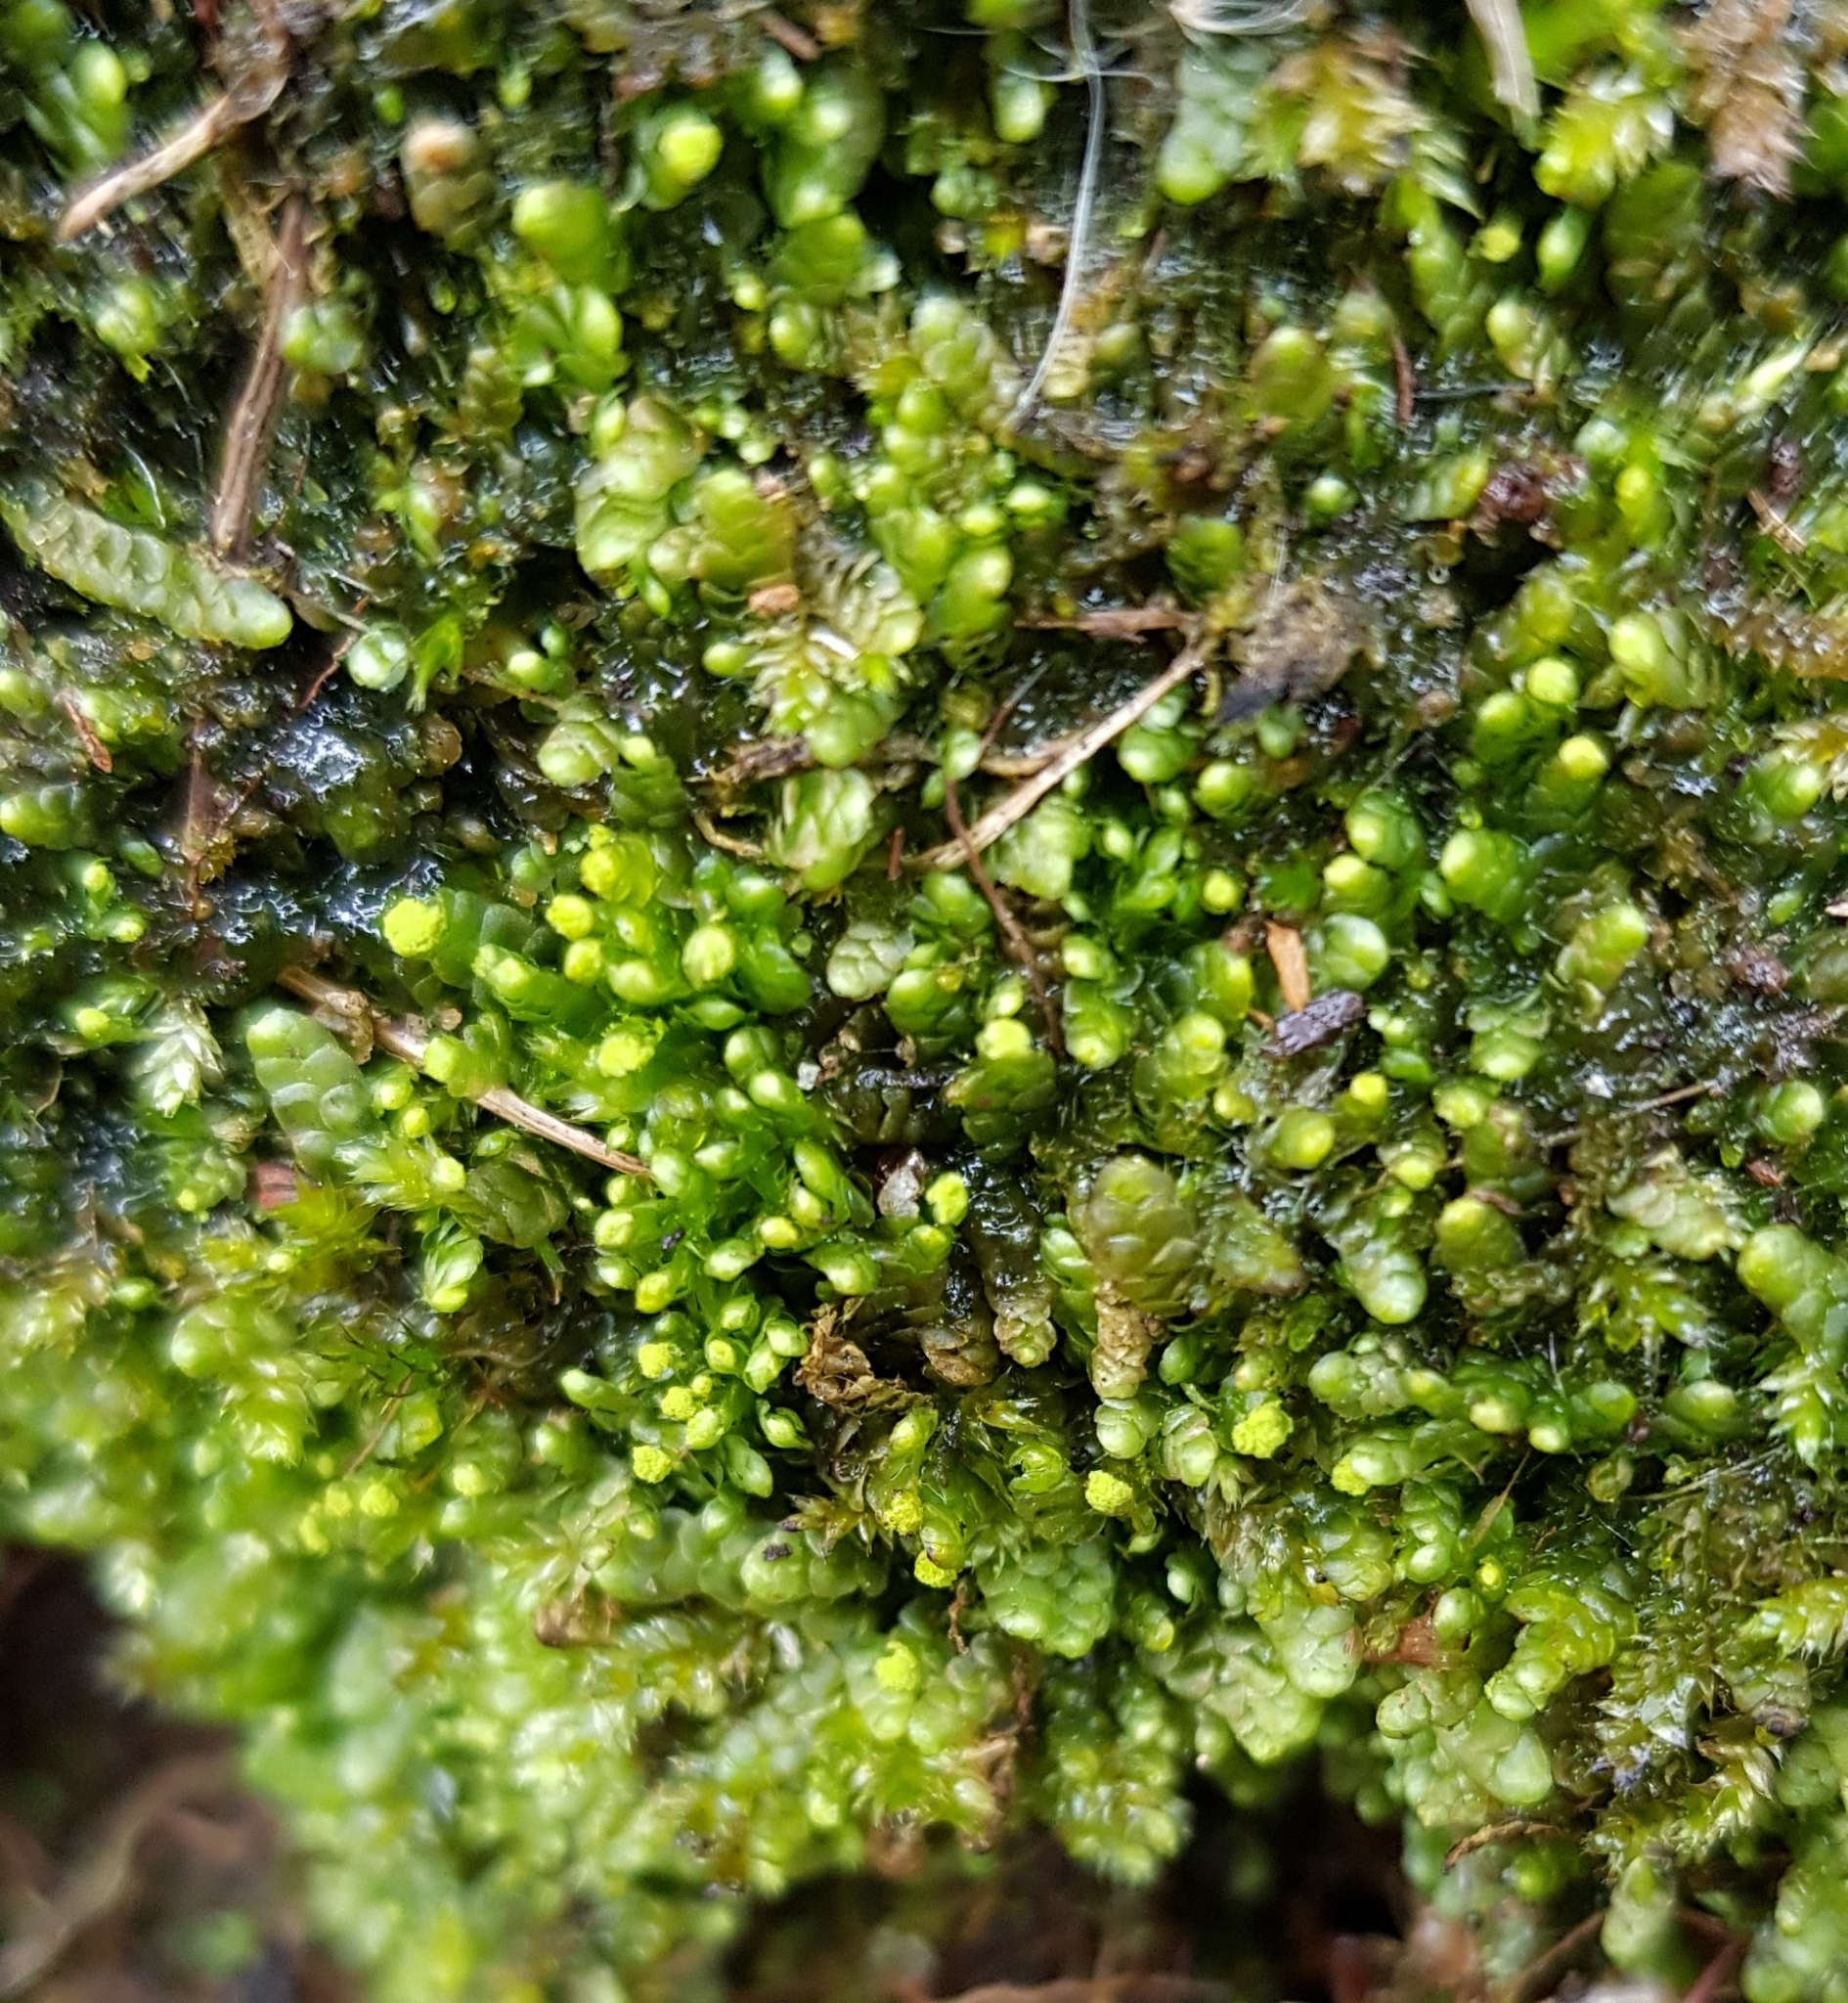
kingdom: Plantae
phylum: Marchantiophyta
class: Jungermanniopsida
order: Jungermanniales
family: Calypogeiaceae
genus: Calypogeia
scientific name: Calypogeia muelleriana
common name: Mueller s pouchwort
